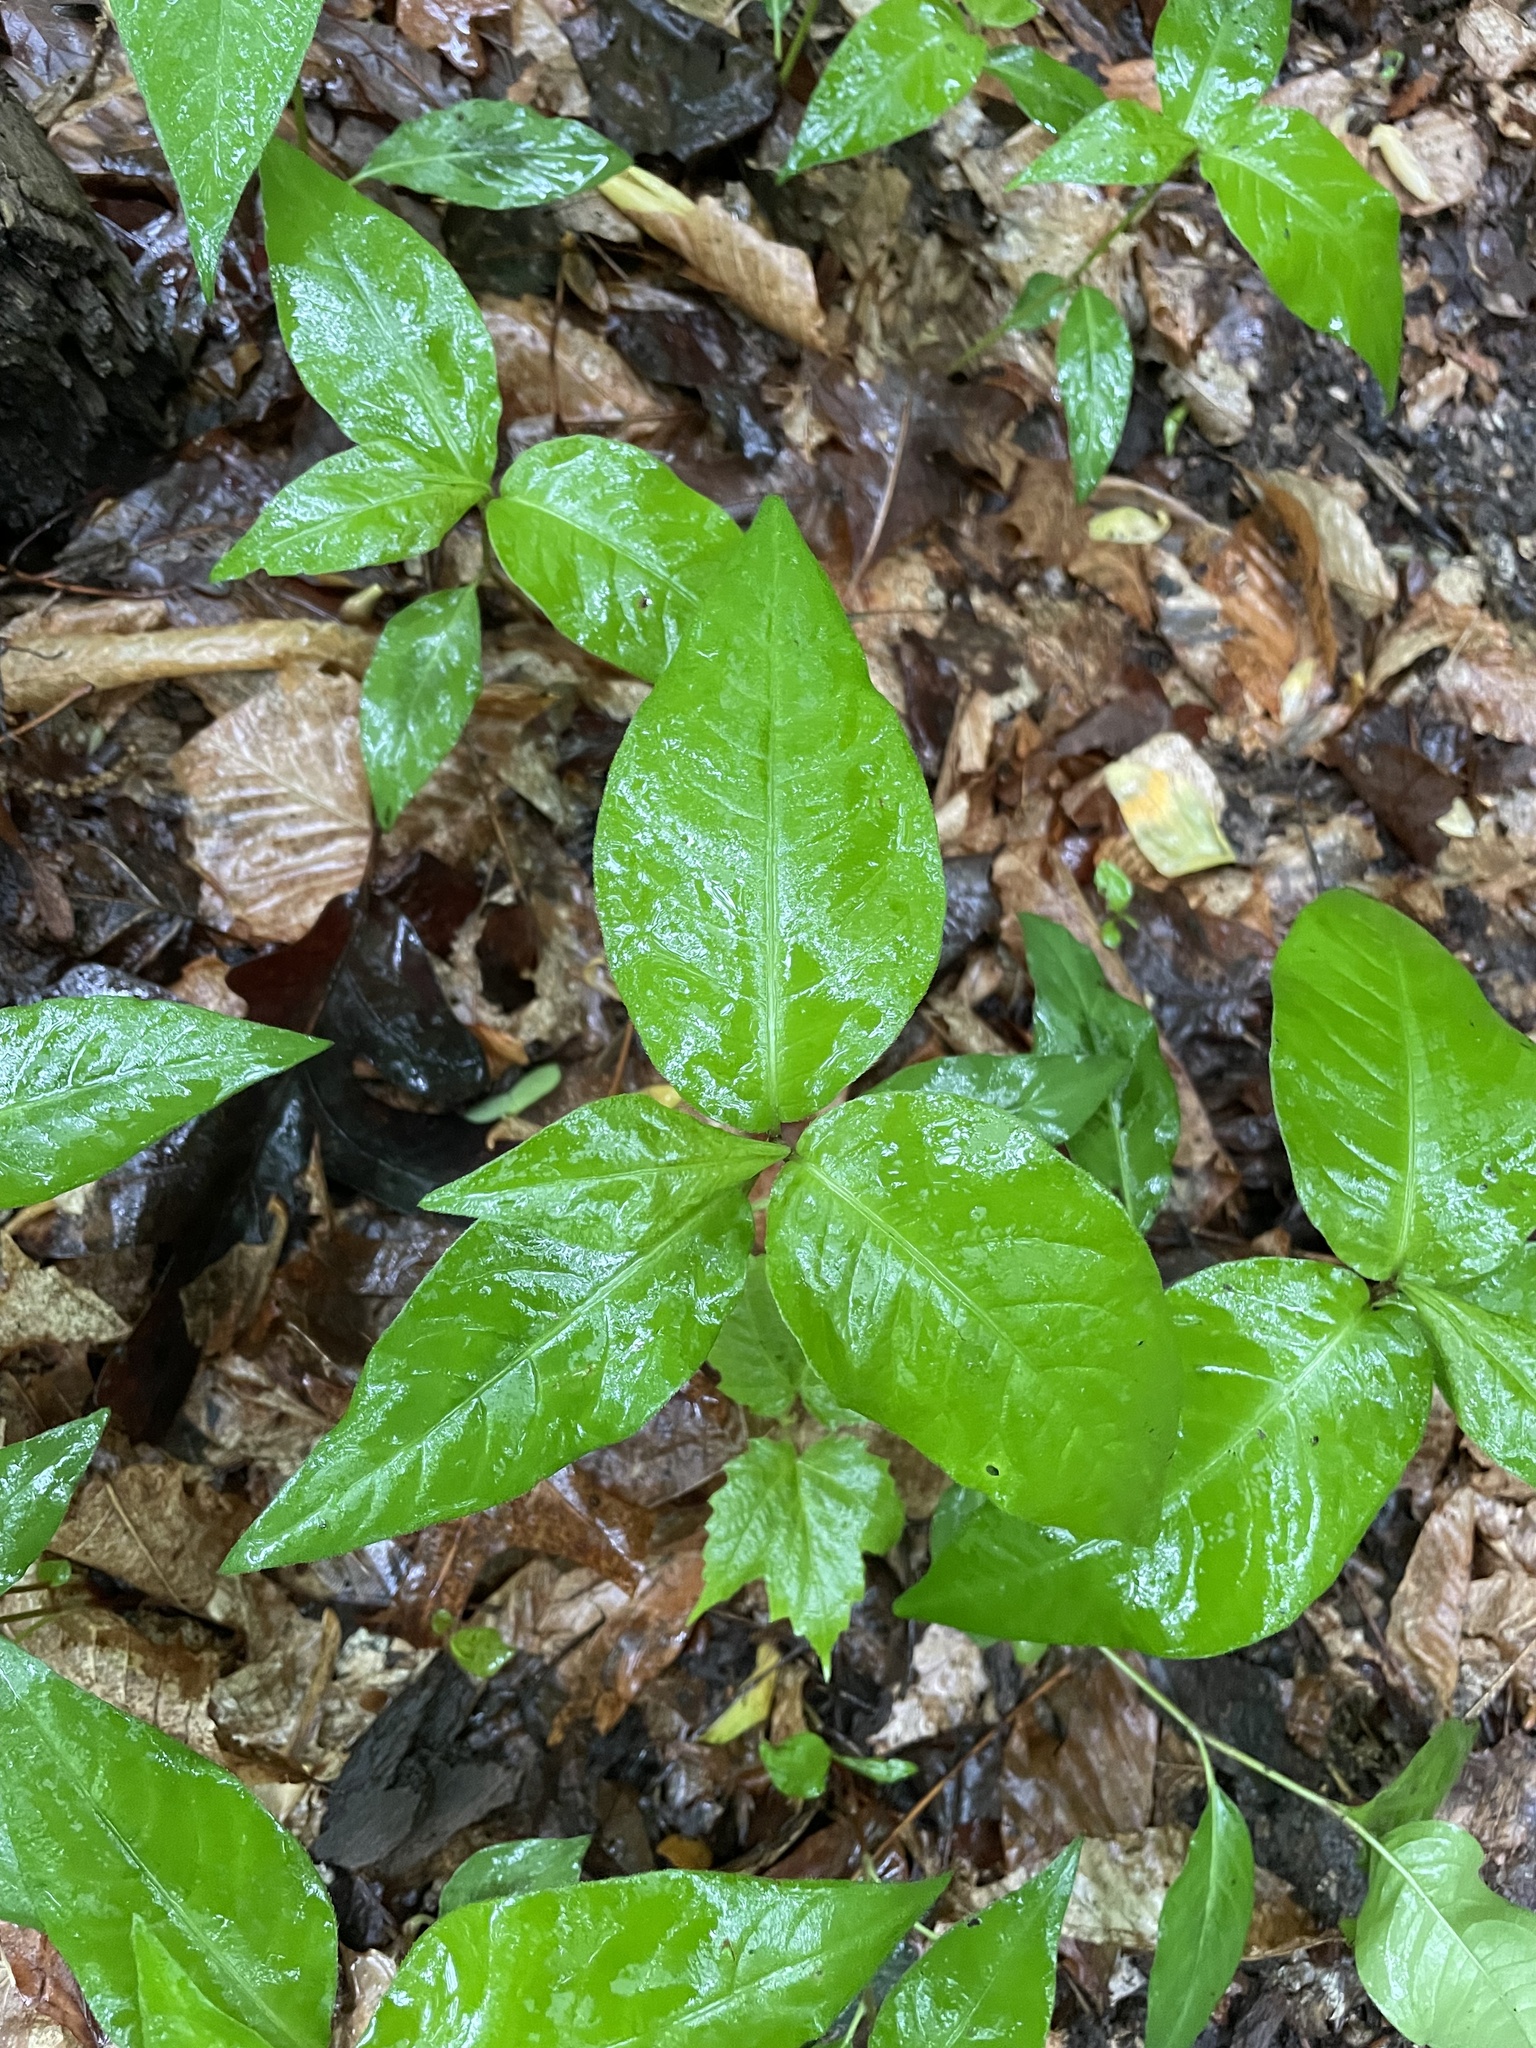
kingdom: Plantae
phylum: Tracheophyta
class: Magnoliopsida
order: Caryophyllales
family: Polygonaceae
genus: Persicaria
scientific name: Persicaria virginiana
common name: Jumpseed
